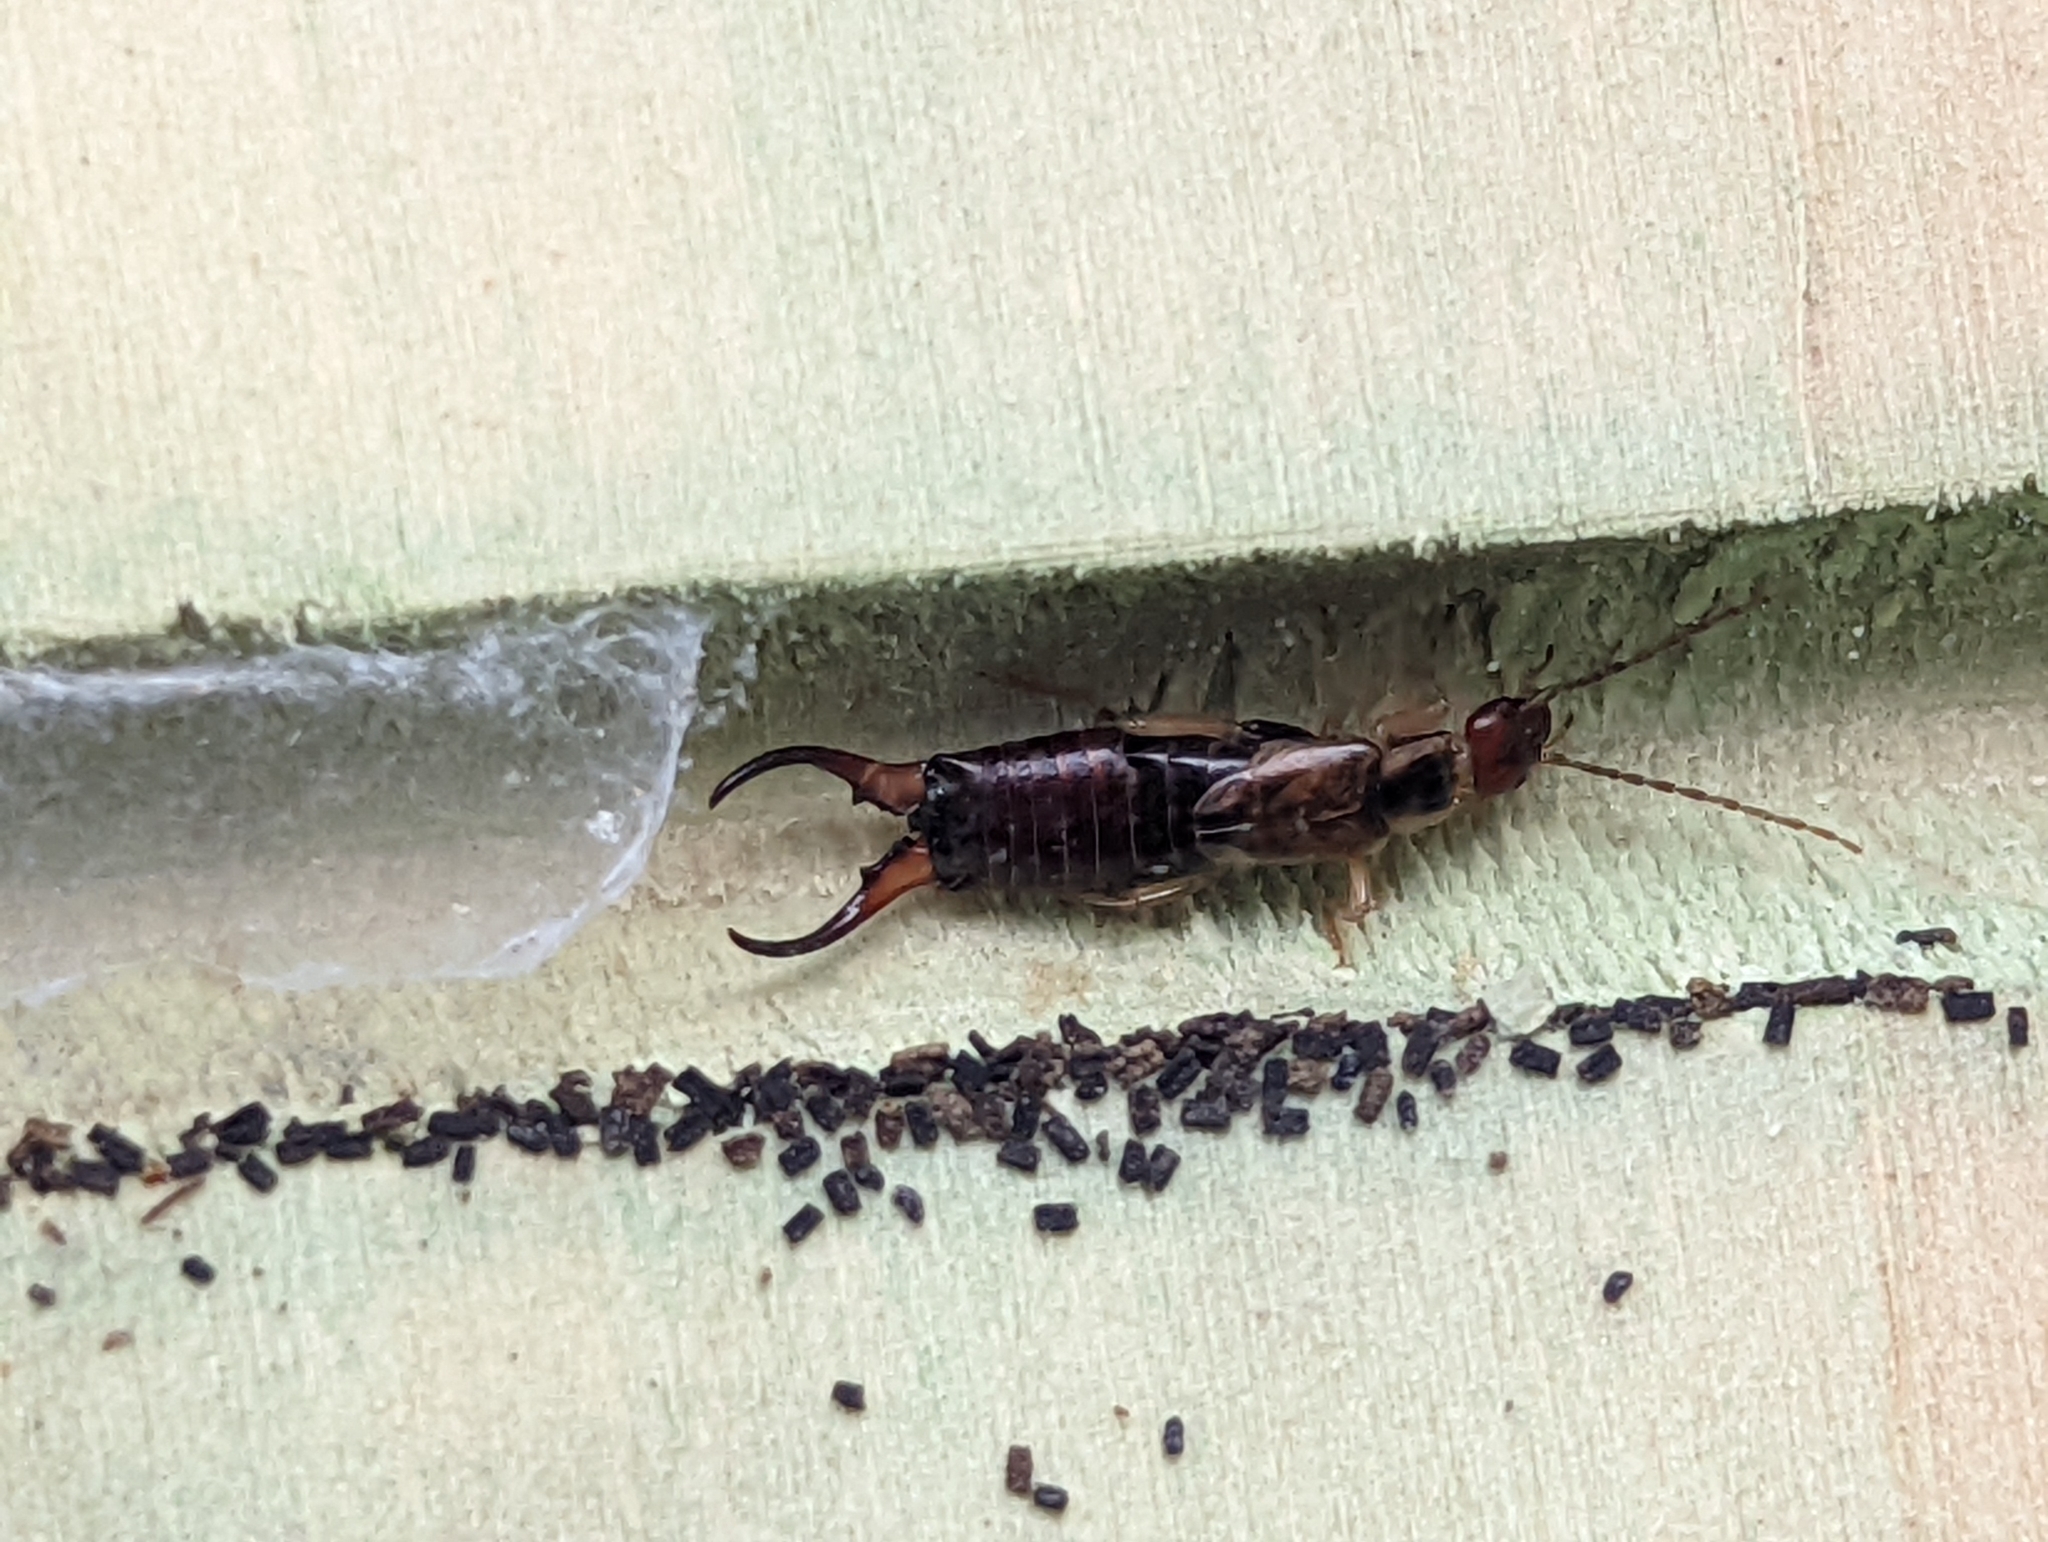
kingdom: Animalia
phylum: Arthropoda
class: Insecta
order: Dermaptera
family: Forficulidae
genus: Forficula
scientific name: Forficula
